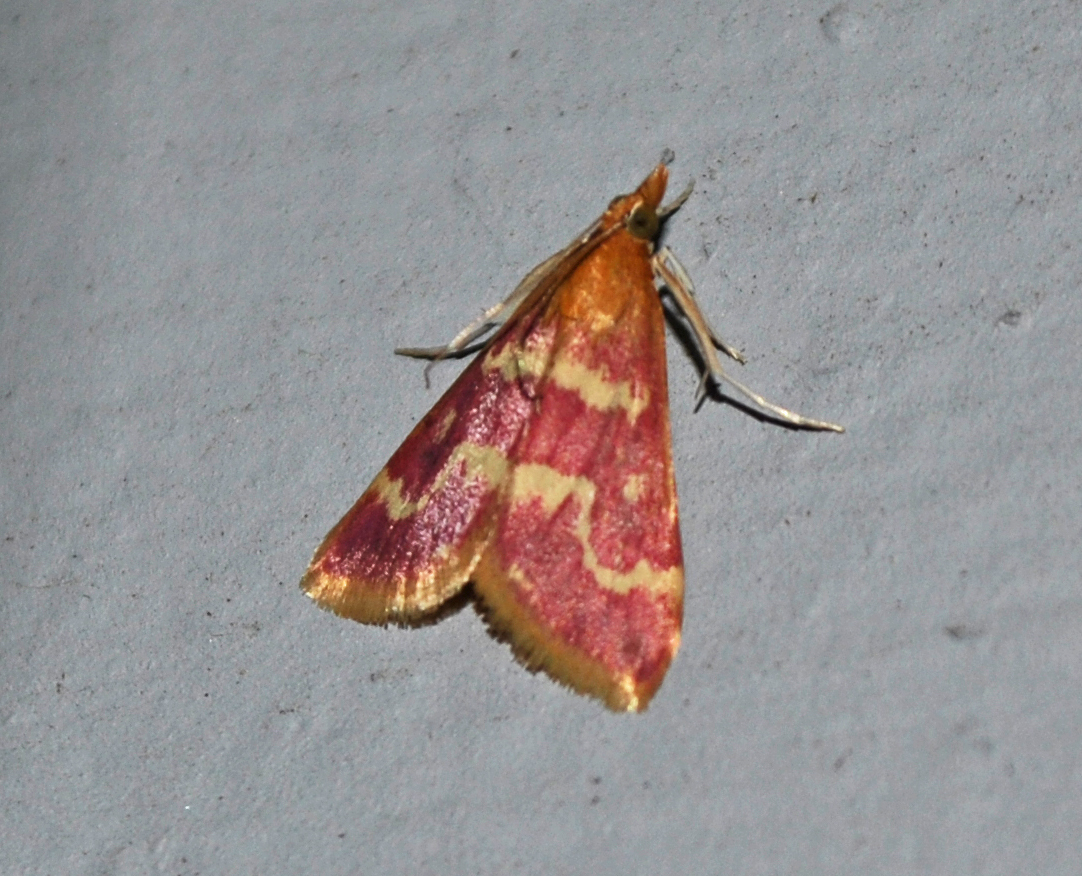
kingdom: Animalia
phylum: Arthropoda
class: Insecta
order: Lepidoptera
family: Crambidae
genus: Pyrausta
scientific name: Pyrausta signatalis
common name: Raspberry pyrausta moth
